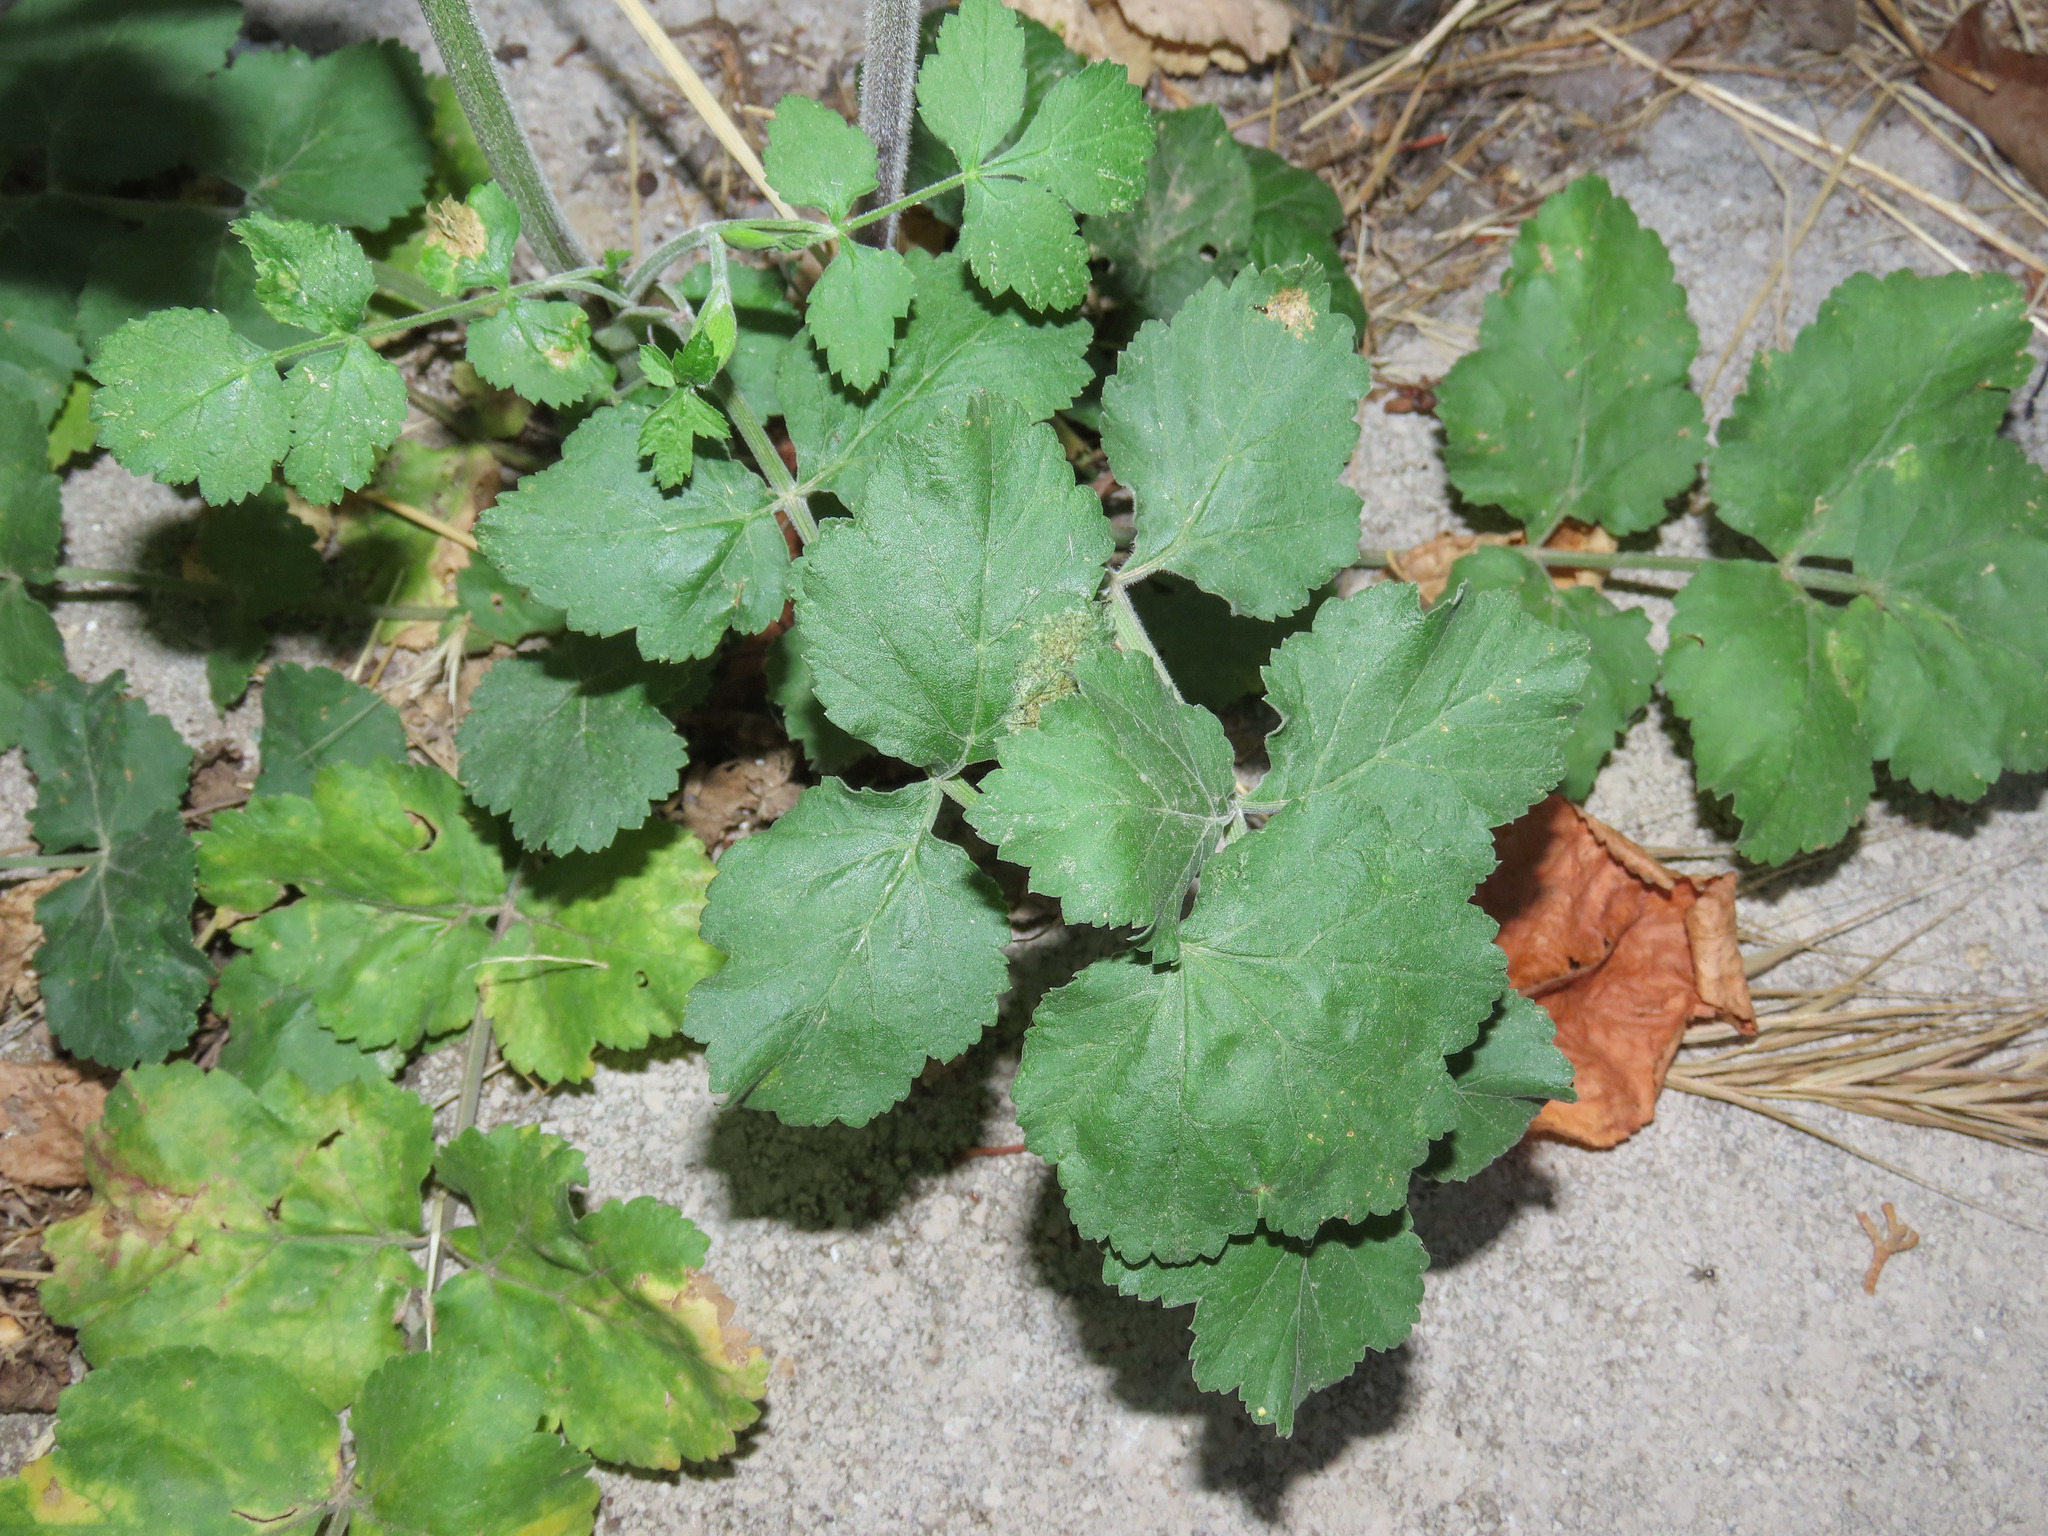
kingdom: Plantae
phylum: Tracheophyta
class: Magnoliopsida
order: Apiales
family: Apiaceae
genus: Pastinaca
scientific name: Pastinaca sativa
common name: Wild parsnip
